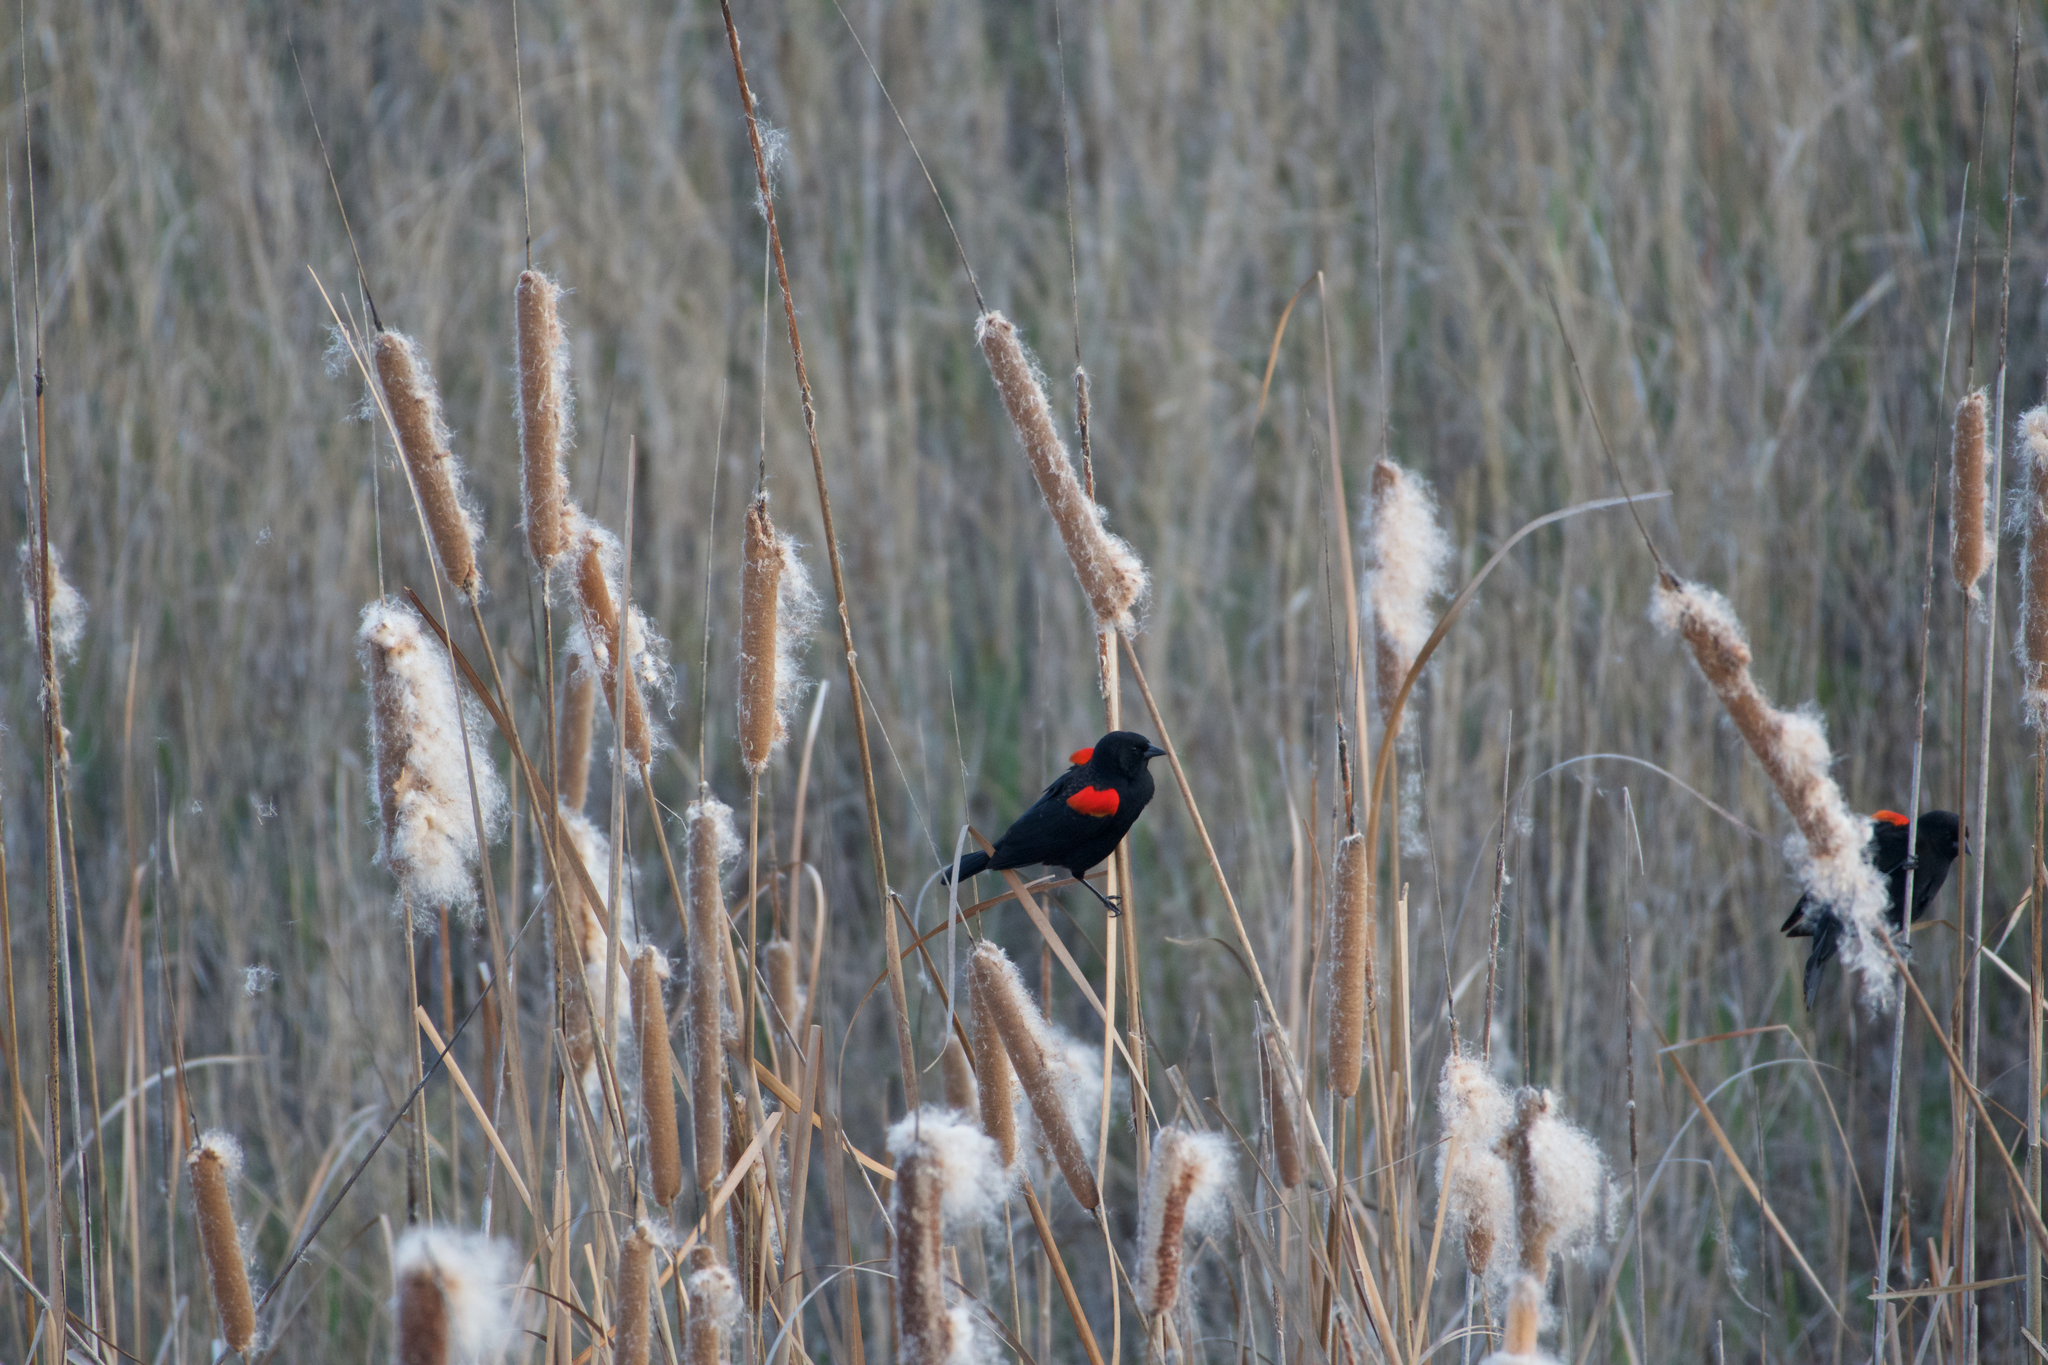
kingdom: Animalia
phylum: Chordata
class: Aves
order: Passeriformes
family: Icteridae
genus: Agelaius
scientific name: Agelaius phoeniceus
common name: Red-winged blackbird
